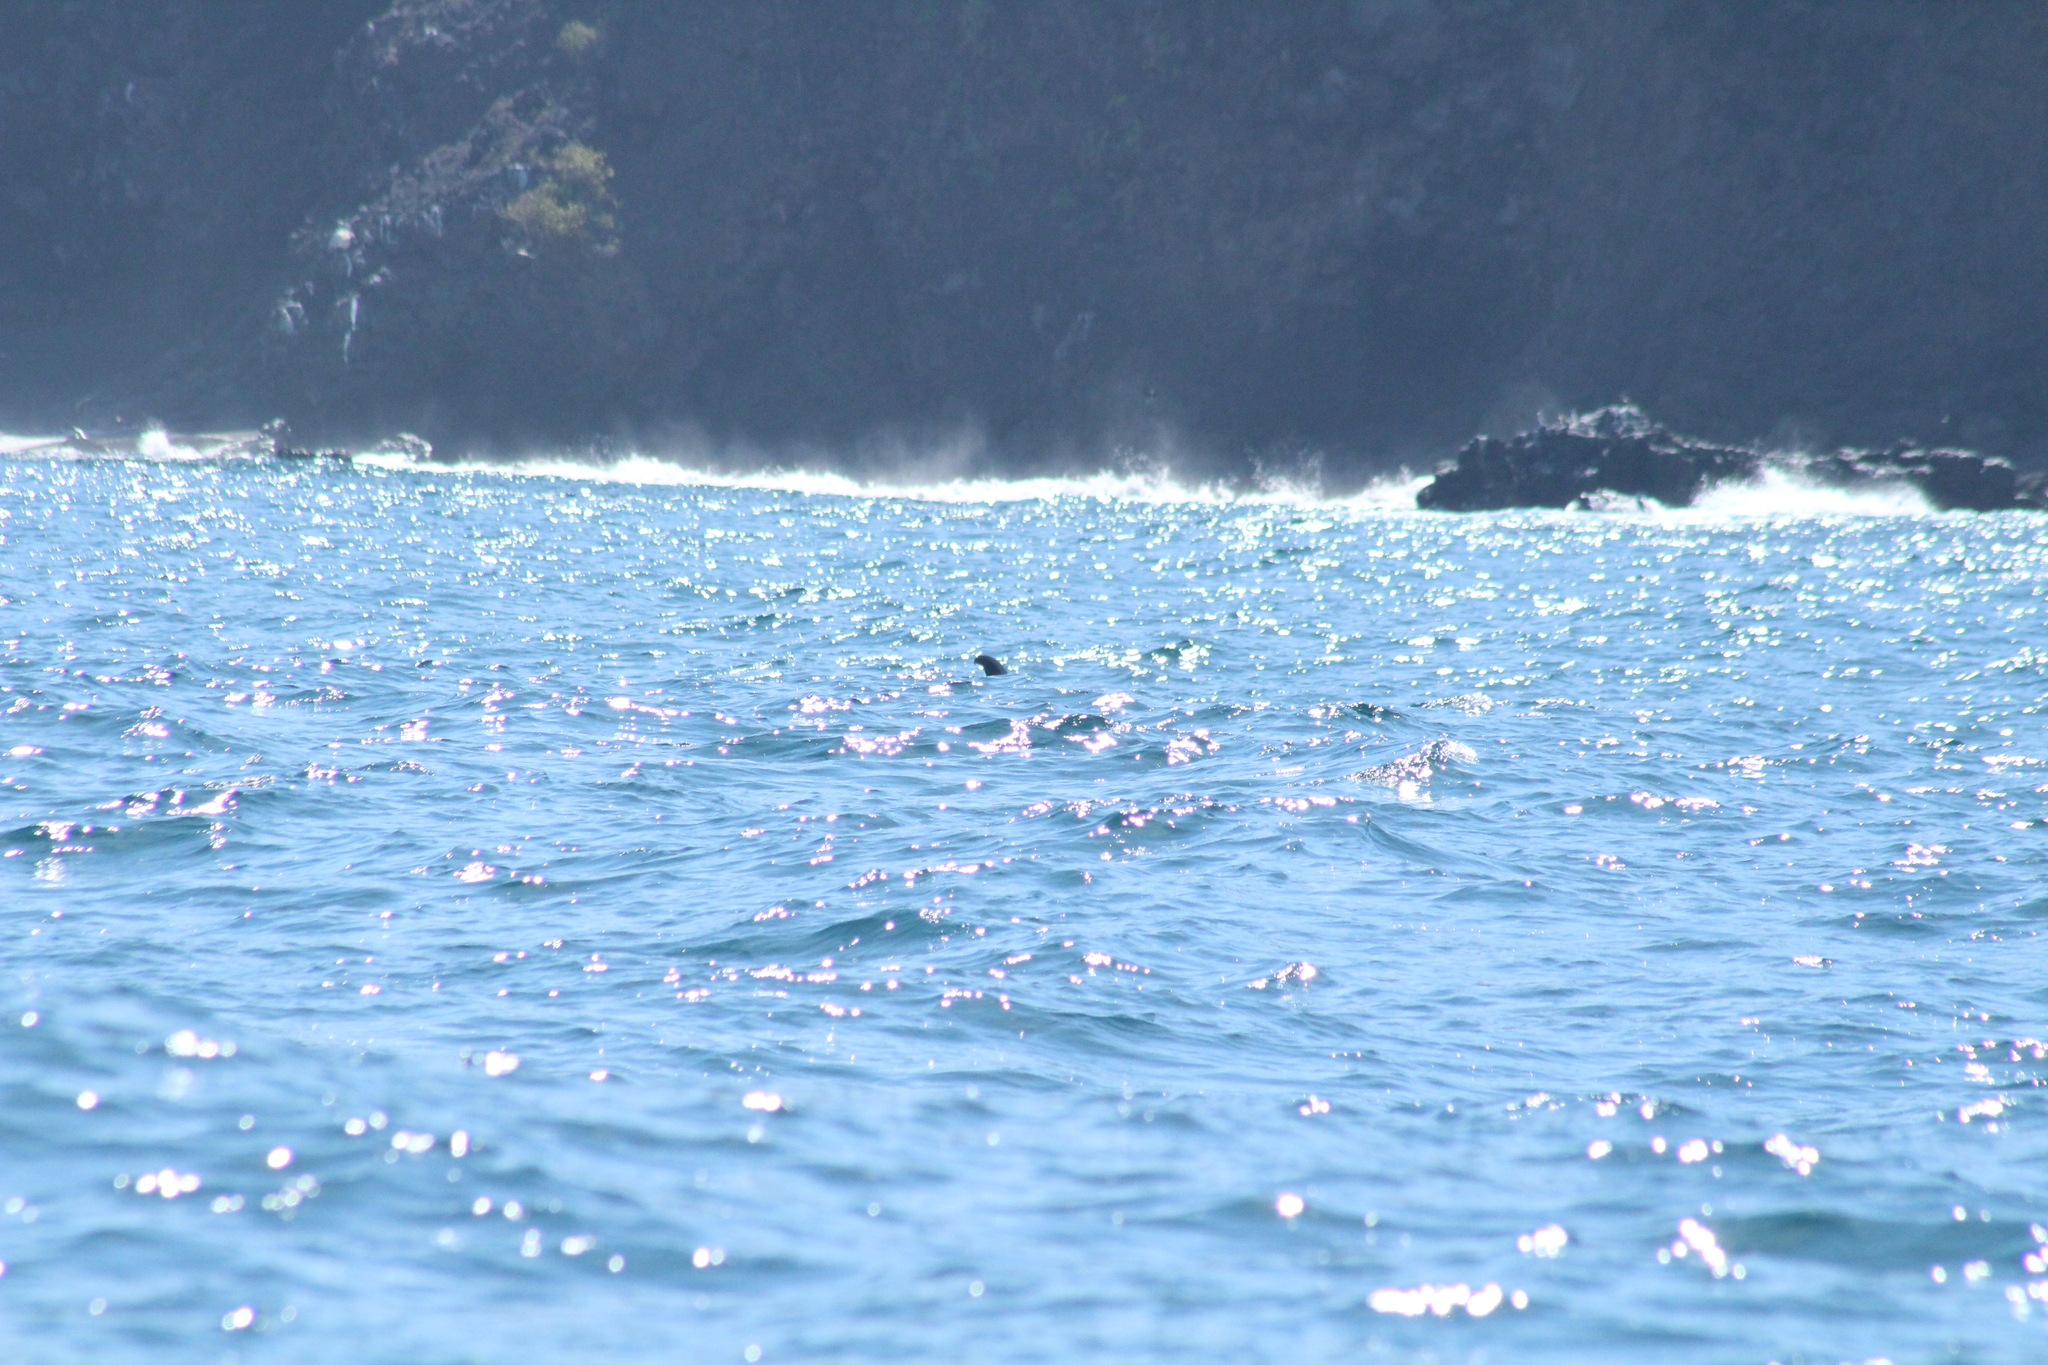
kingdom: Animalia
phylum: Chordata
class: Mammalia
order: Cetacea
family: Balaenopteridae
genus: Balaenoptera
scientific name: Balaenoptera edeni
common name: Bryde's whale
